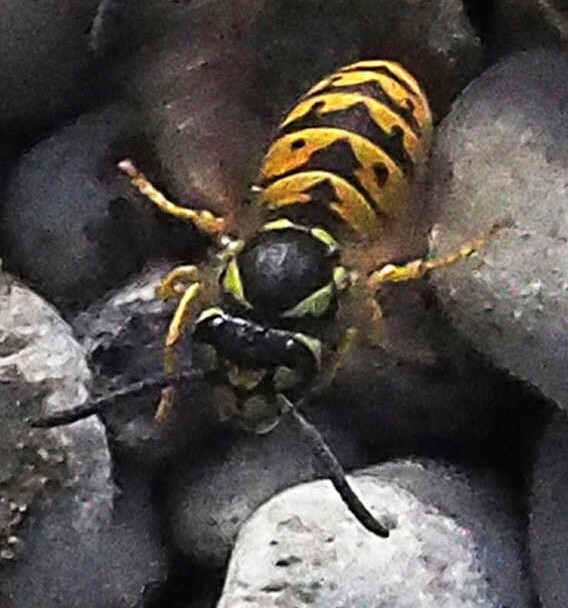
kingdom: Animalia
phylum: Arthropoda
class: Insecta
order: Hymenoptera
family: Vespidae
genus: Vespula
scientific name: Vespula
